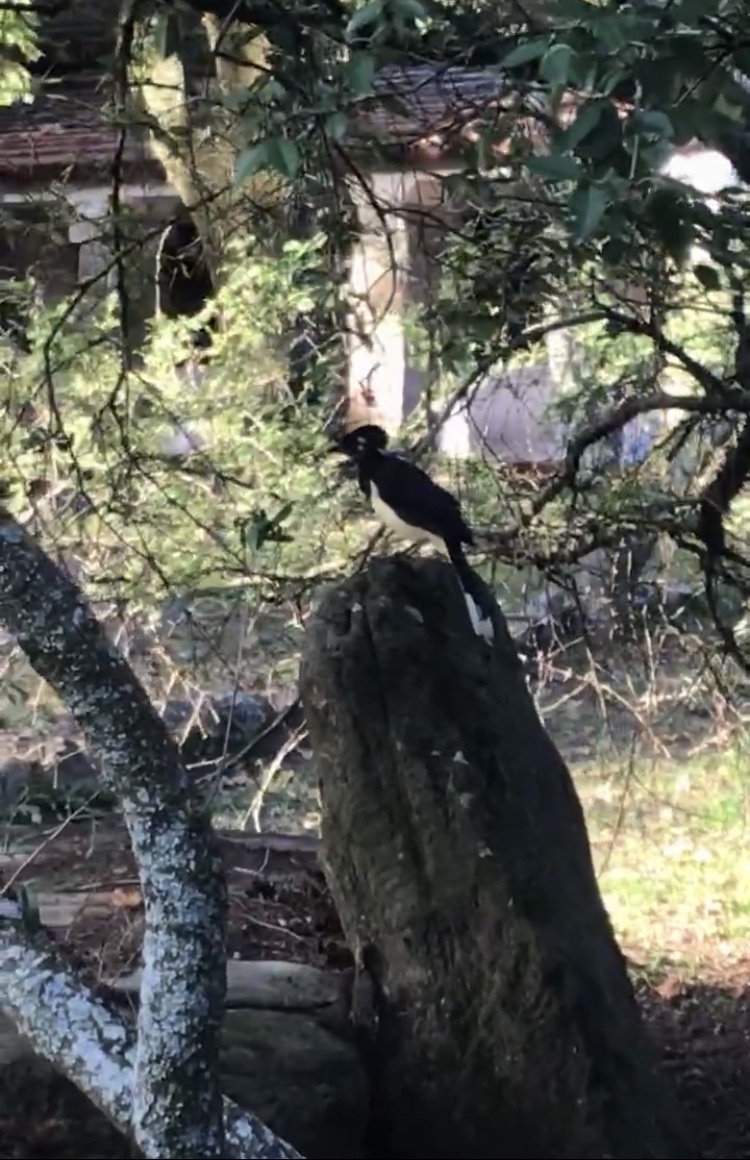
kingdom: Animalia
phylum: Chordata
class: Aves
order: Passeriformes
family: Corvidae
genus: Cyanocorax
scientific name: Cyanocorax chrysops
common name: Plush-crested jay
